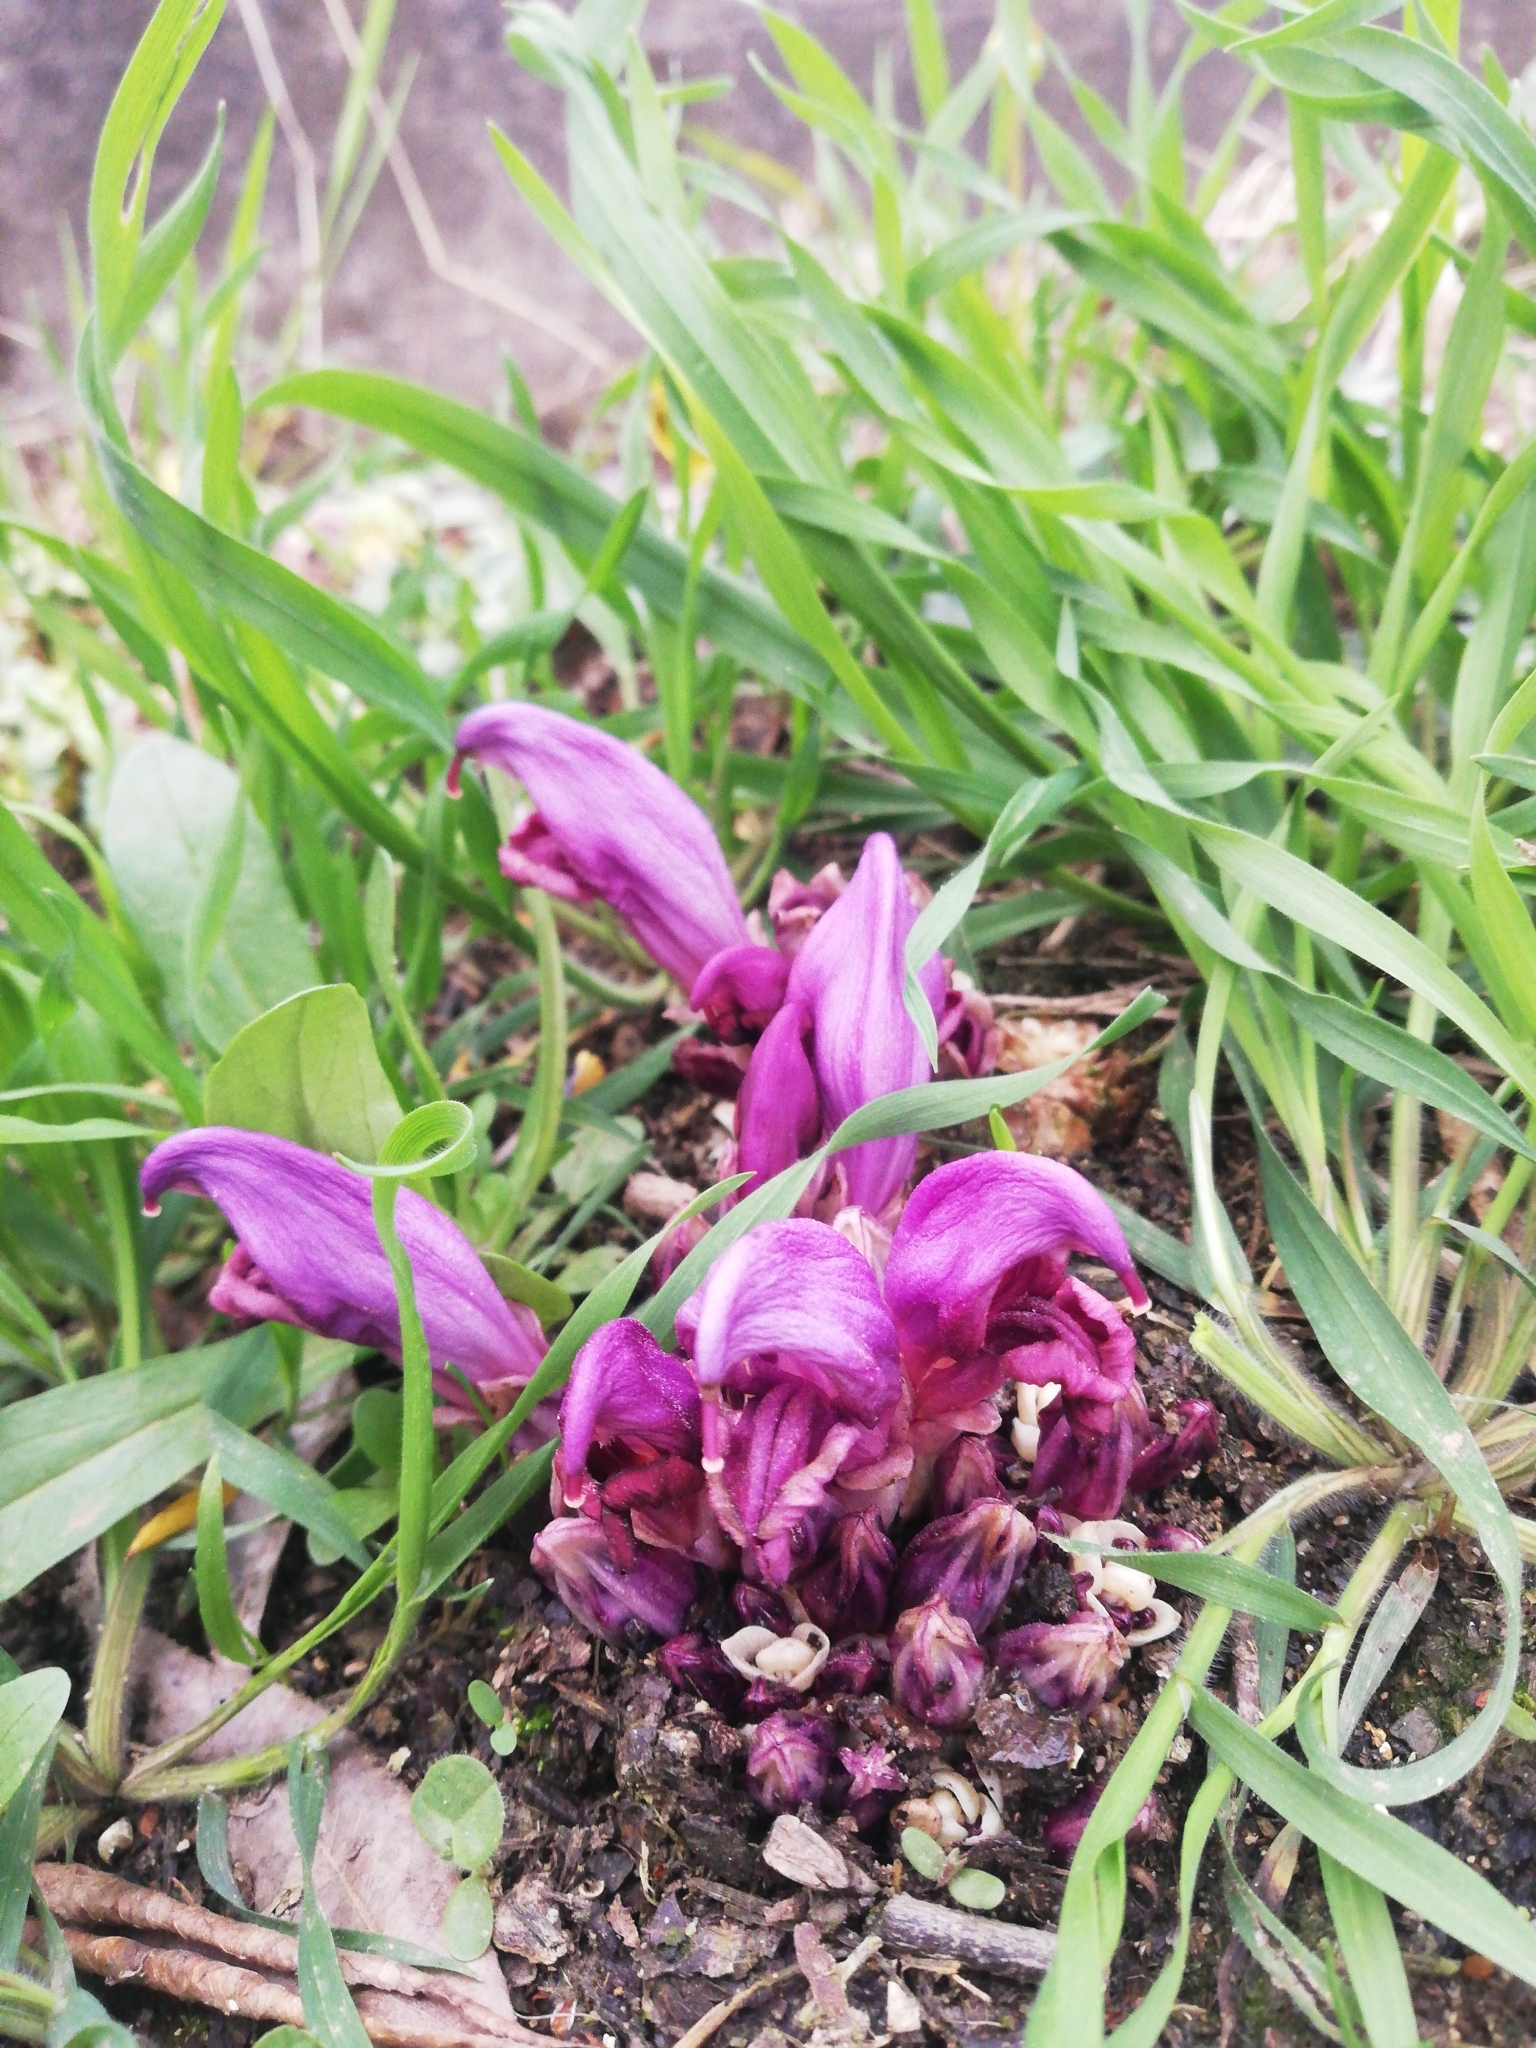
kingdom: Plantae
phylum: Tracheophyta
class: Magnoliopsida
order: Lamiales
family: Orobanchaceae
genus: Lathraea
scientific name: Lathraea clandestina
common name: Purple toothwort
